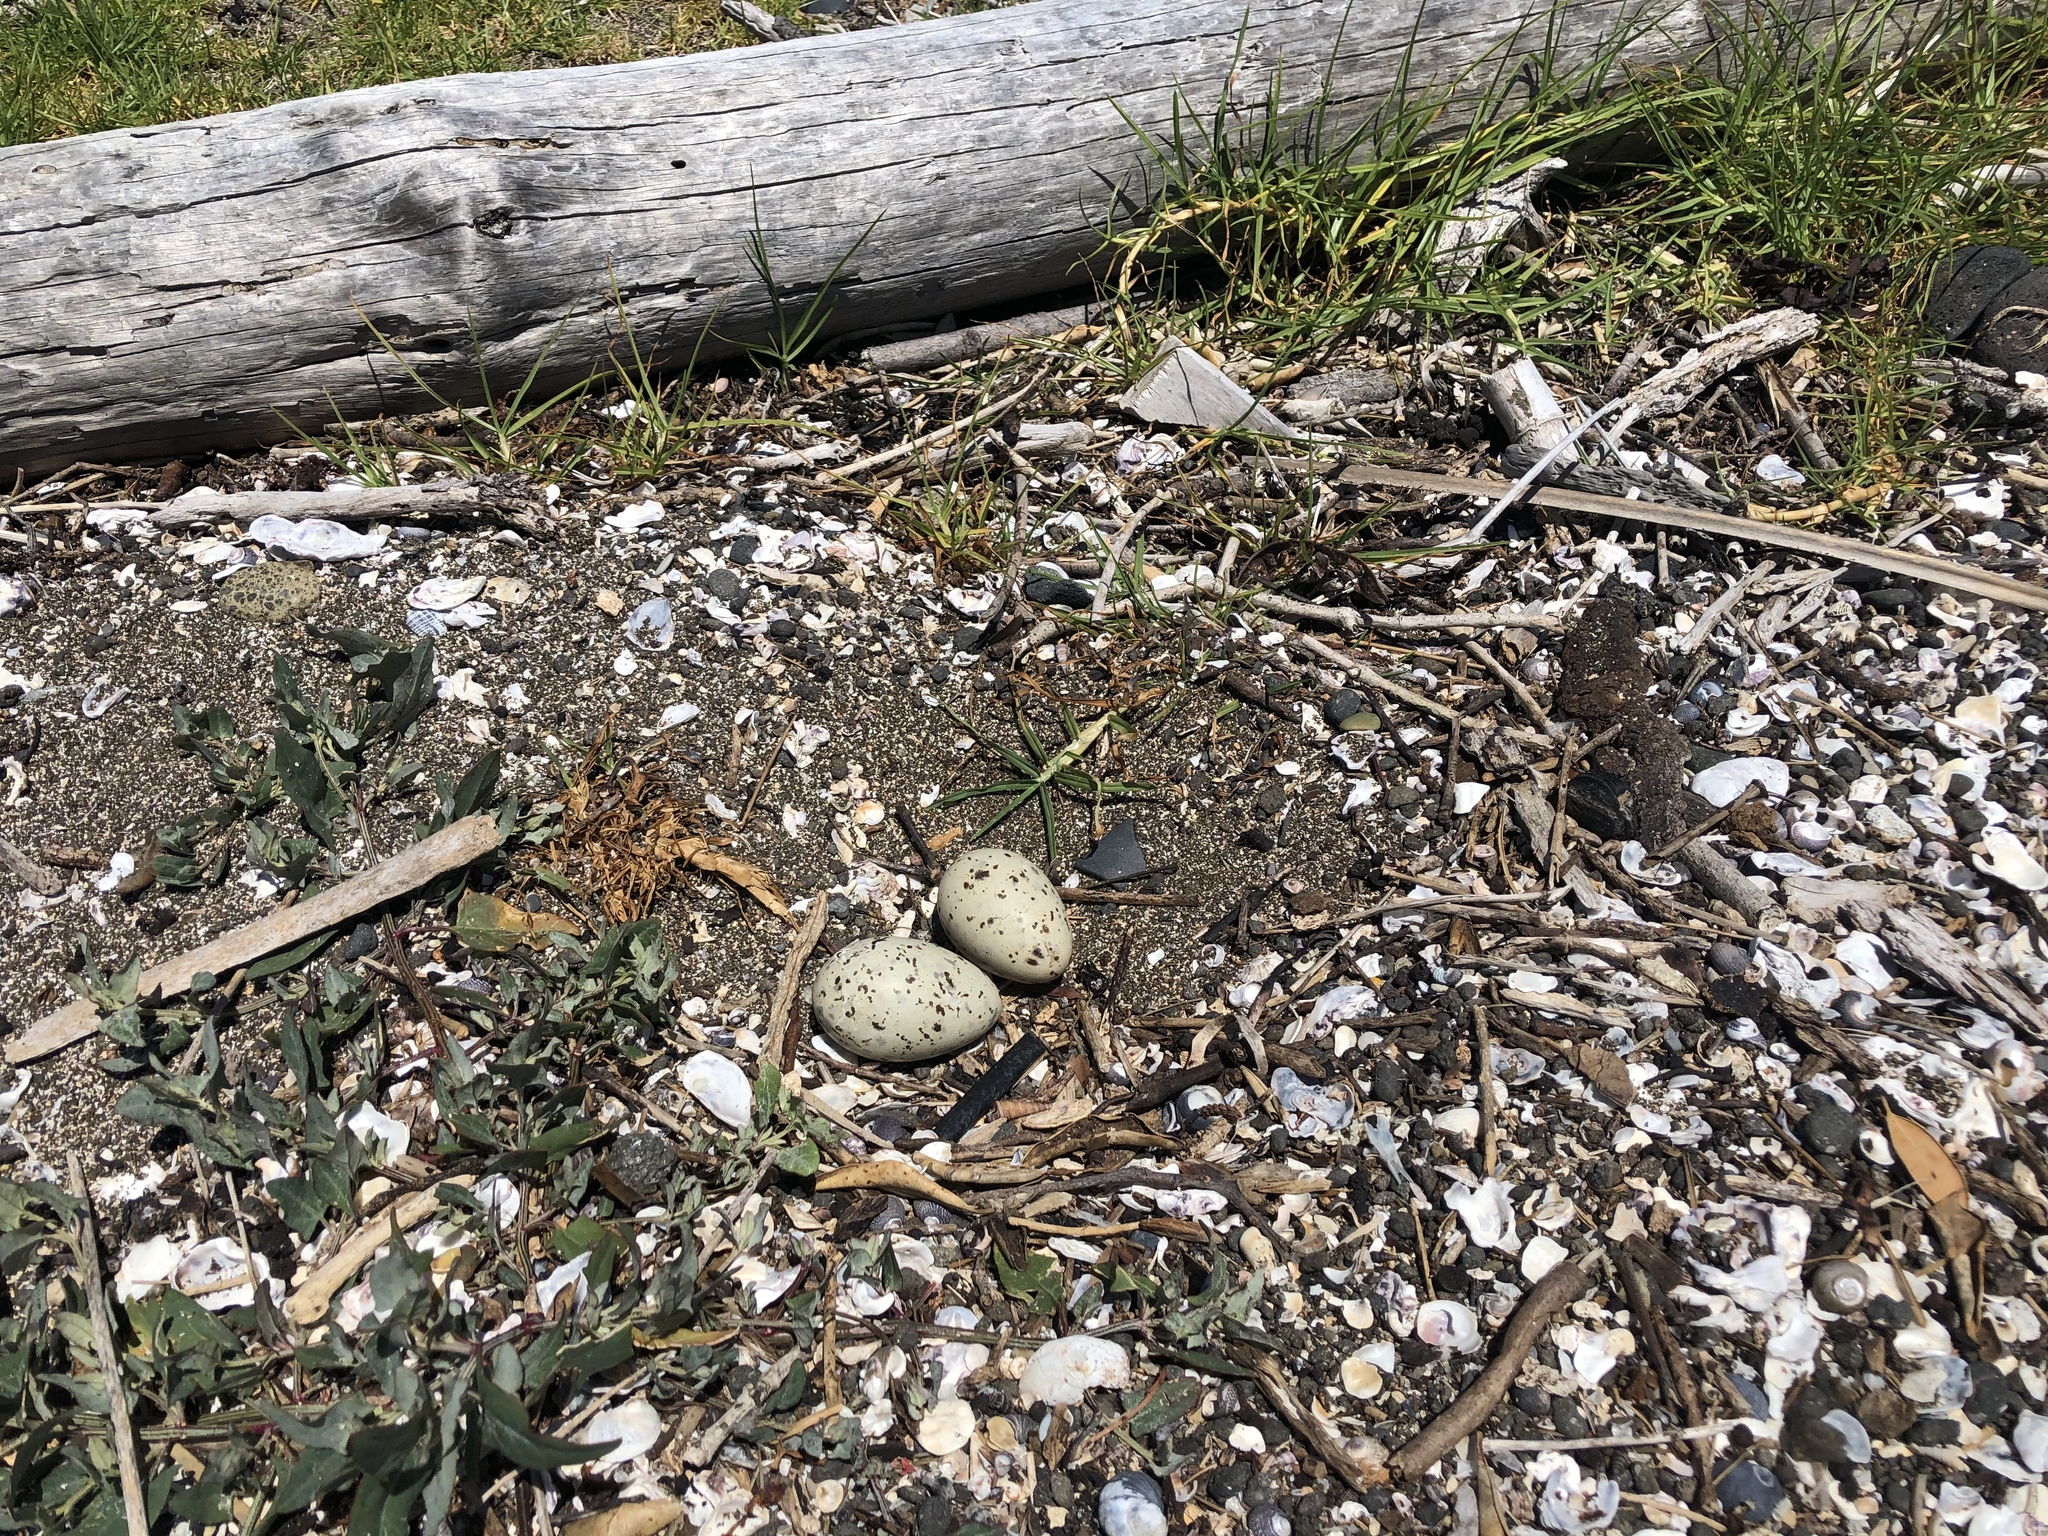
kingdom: Animalia
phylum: Chordata
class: Aves
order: Charadriiformes
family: Laridae
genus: Hydroprogne
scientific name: Hydroprogne caspia
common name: Caspian tern
